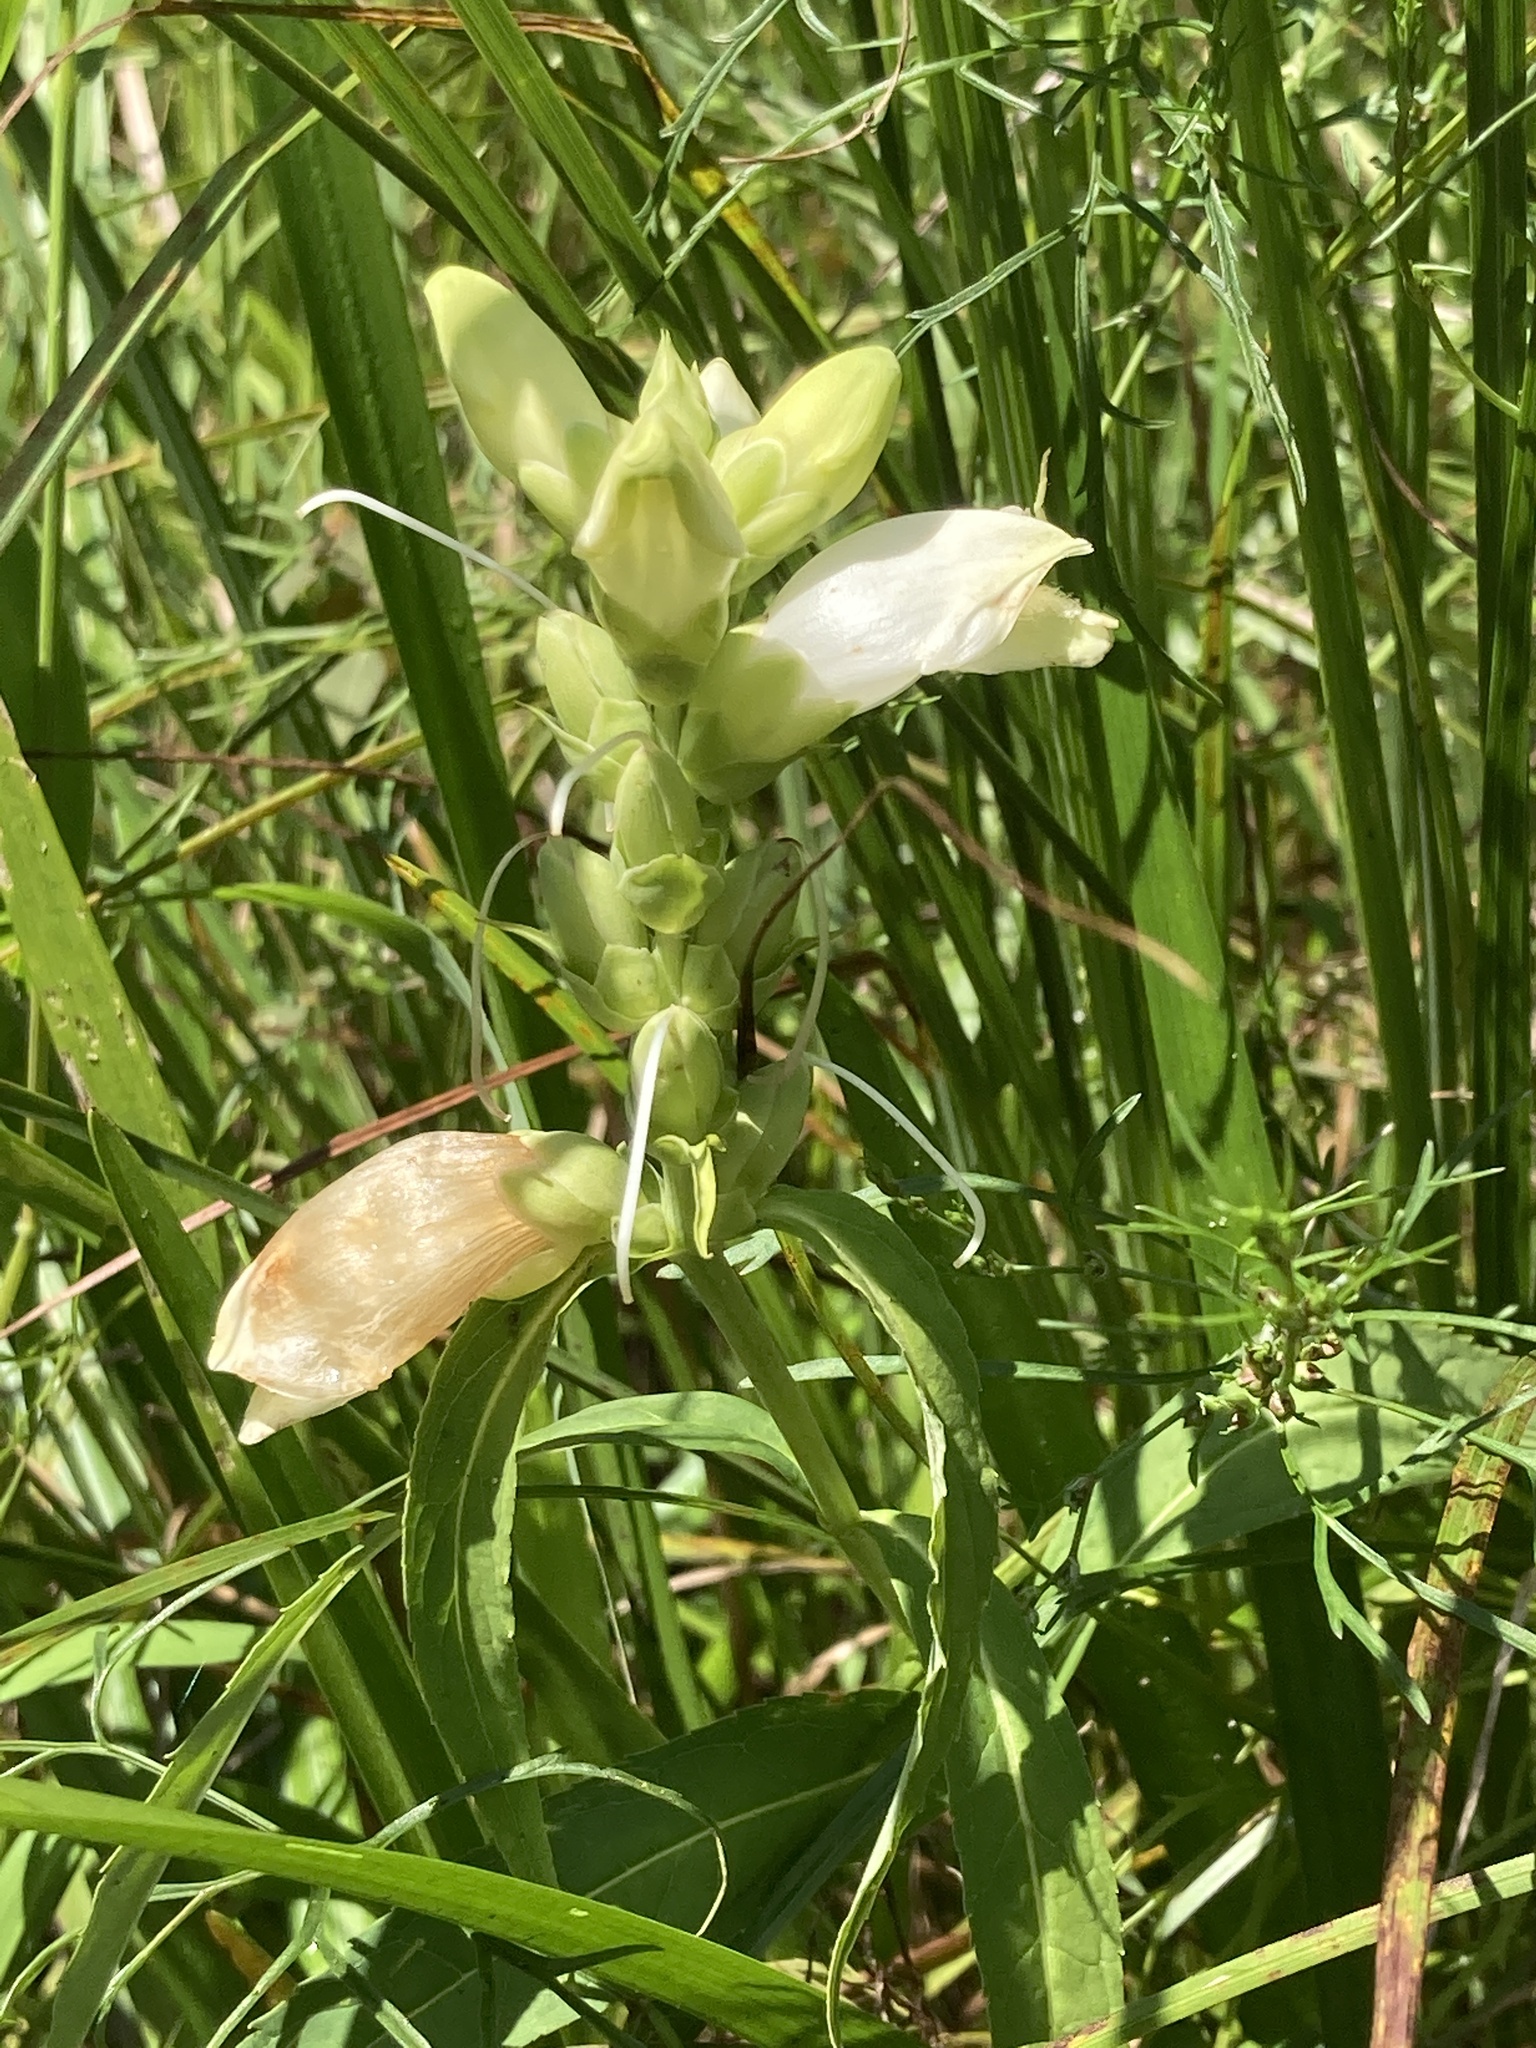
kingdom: Plantae
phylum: Tracheophyta
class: Magnoliopsida
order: Lamiales
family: Plantaginaceae
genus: Chelone
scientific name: Chelone glabra
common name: Snakehead
